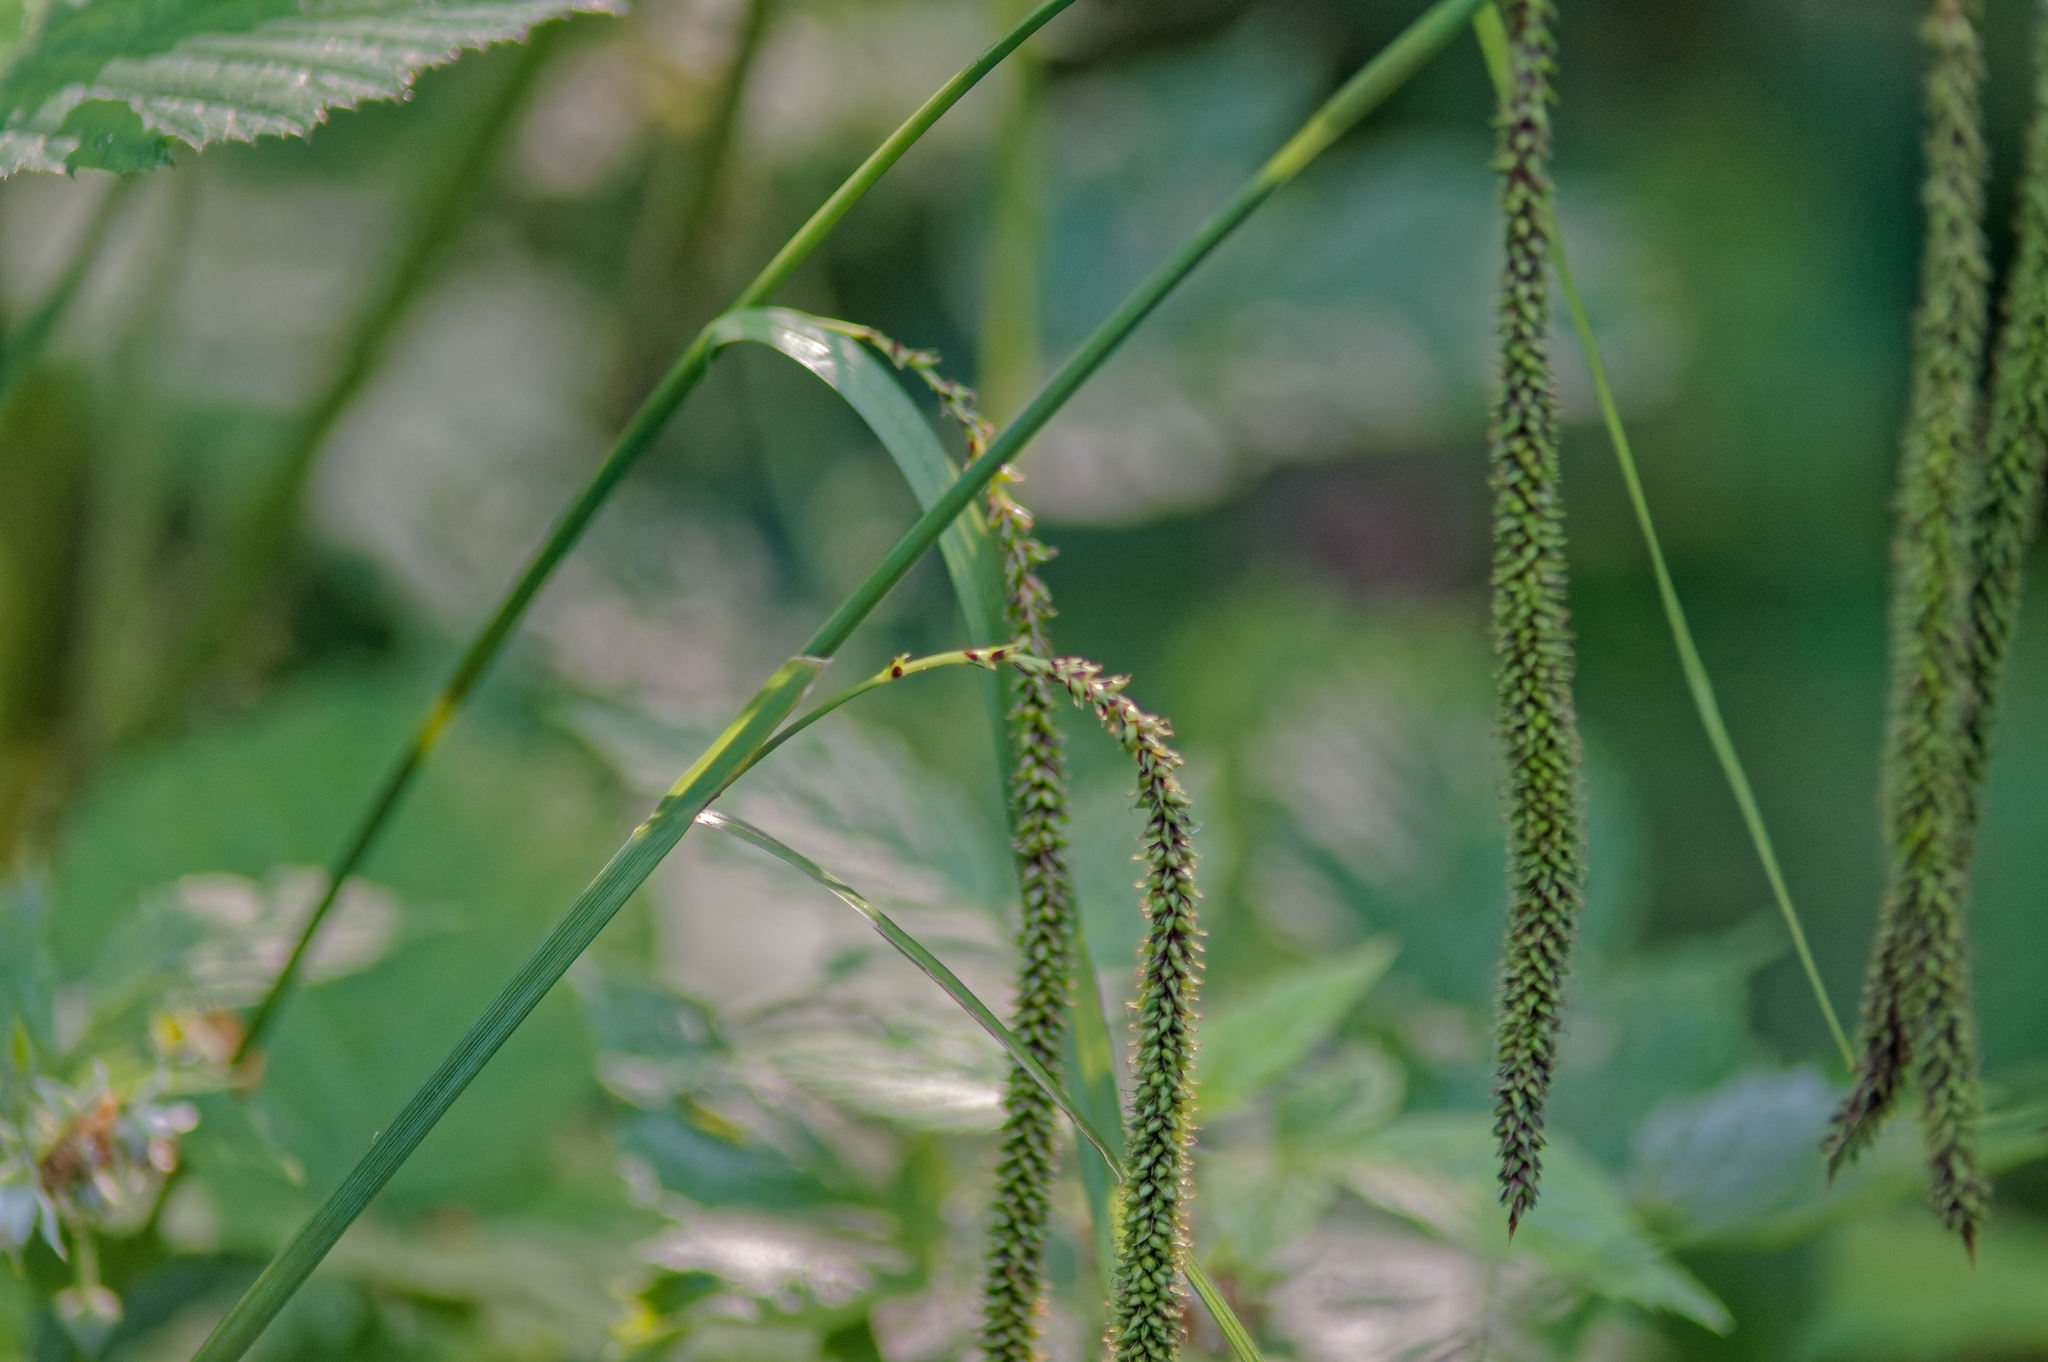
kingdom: Plantae
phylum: Tracheophyta
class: Liliopsida
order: Poales
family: Cyperaceae
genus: Carex
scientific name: Carex pendula
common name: Pendulous sedge
